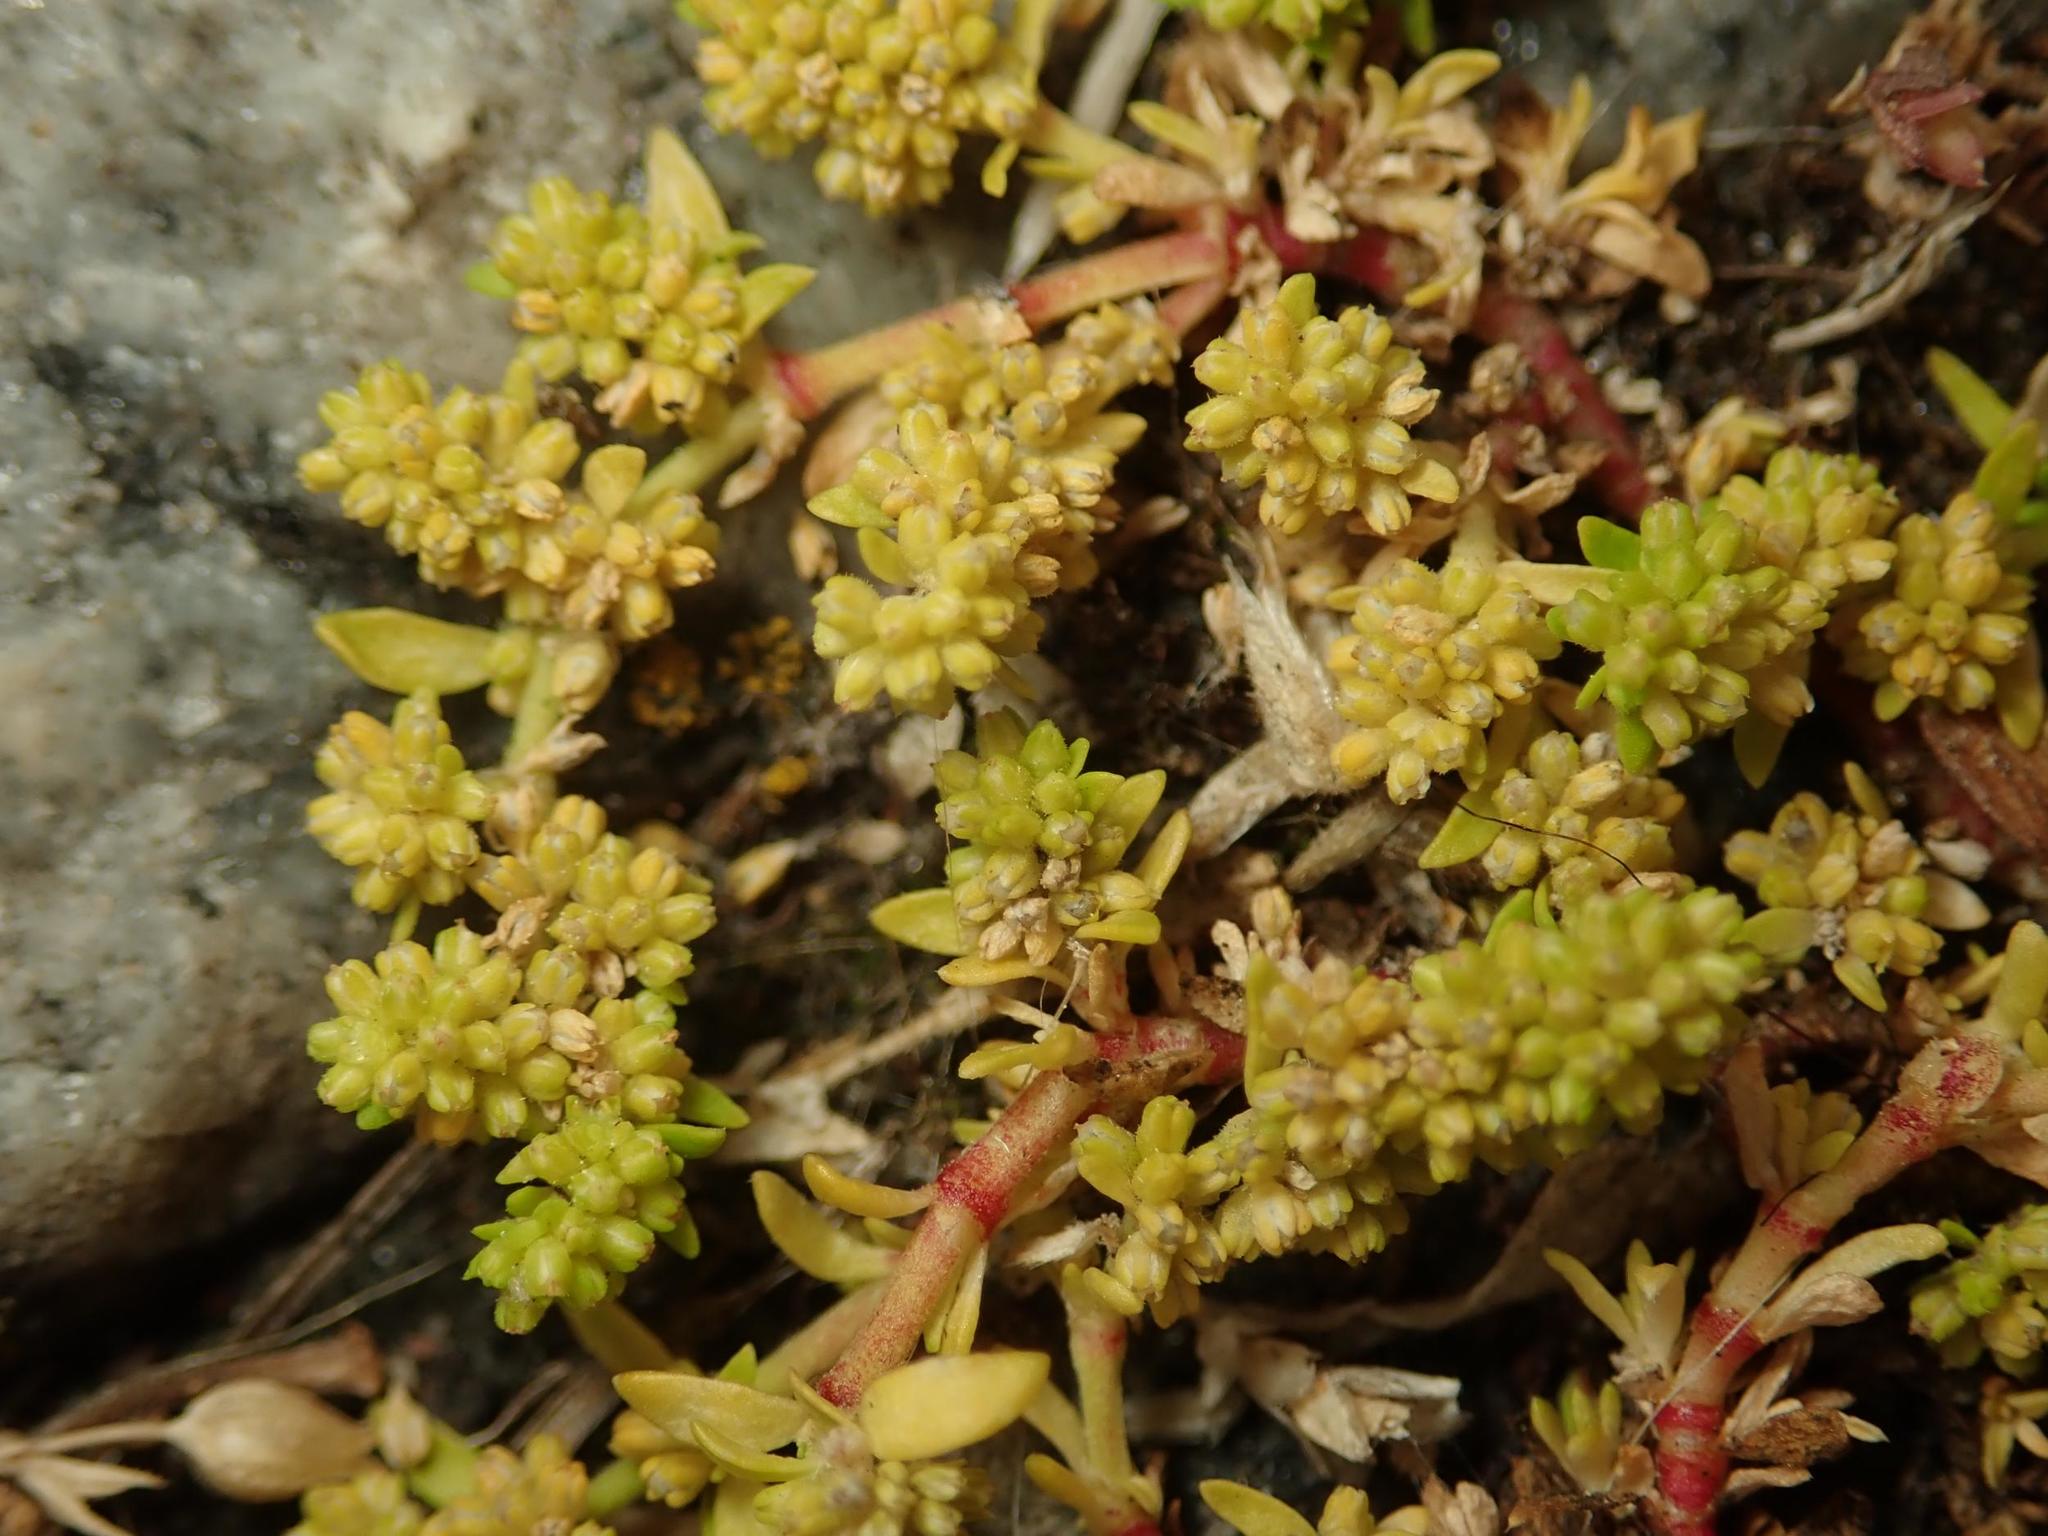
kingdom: Plantae
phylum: Tracheophyta
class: Magnoliopsida
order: Caryophyllales
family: Caryophyllaceae
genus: Herniaria
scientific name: Herniaria glabra
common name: Smooth rupturewort
